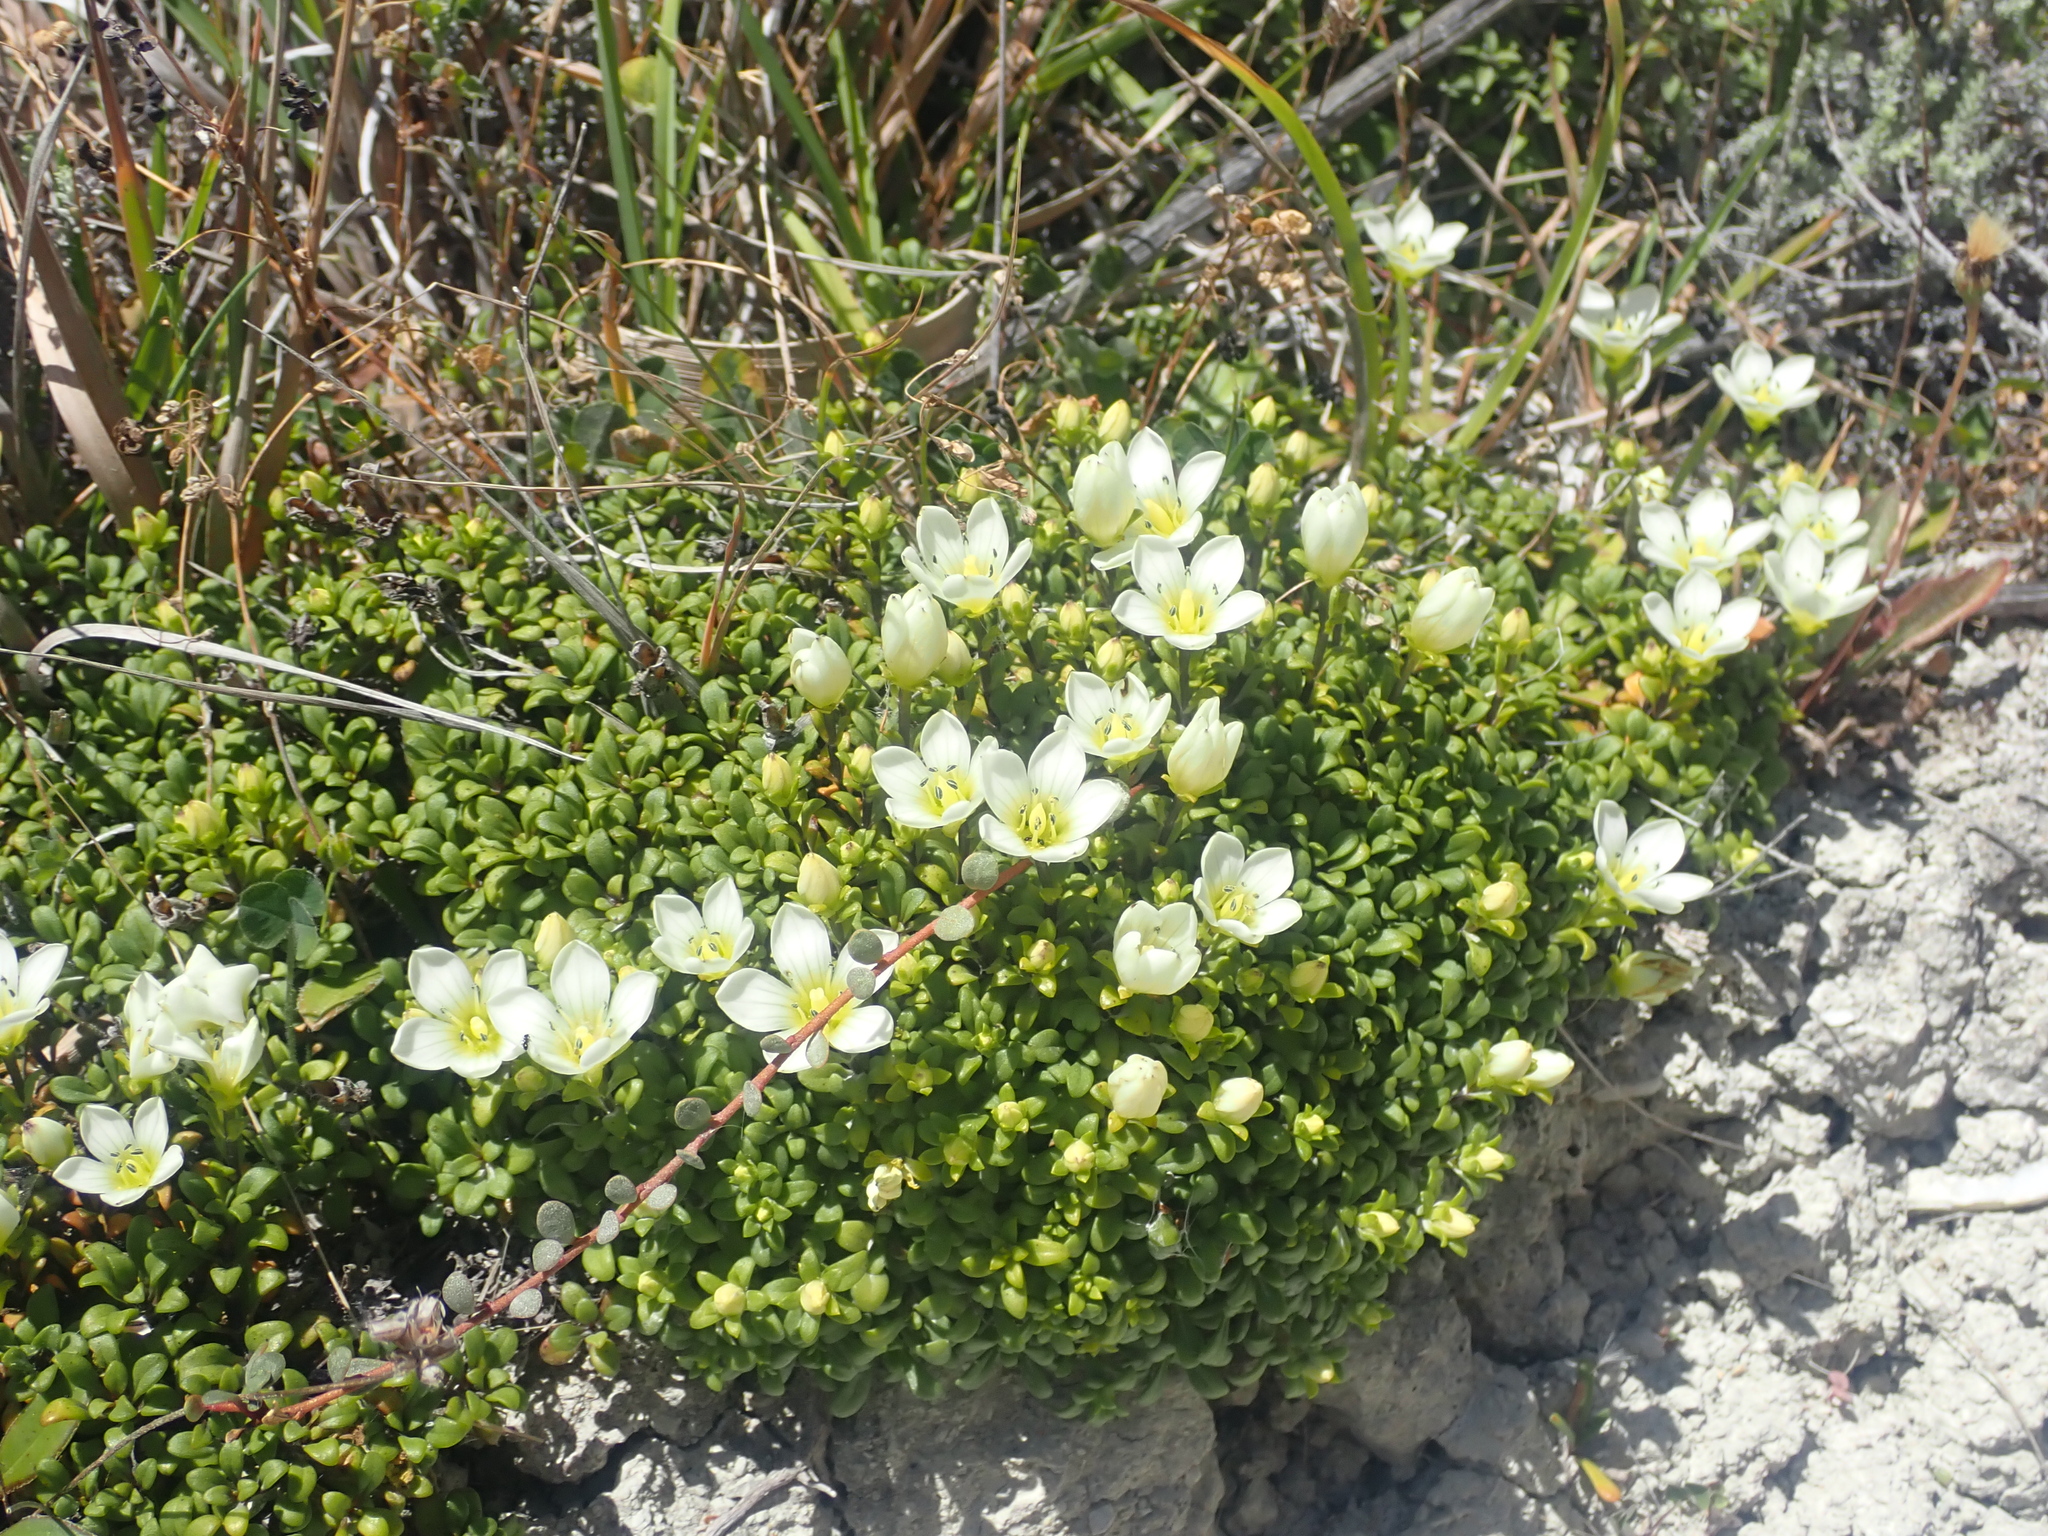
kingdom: Plantae
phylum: Tracheophyta
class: Magnoliopsida
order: Gentianales
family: Gentianaceae
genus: Gentianella
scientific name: Gentianella astonii
